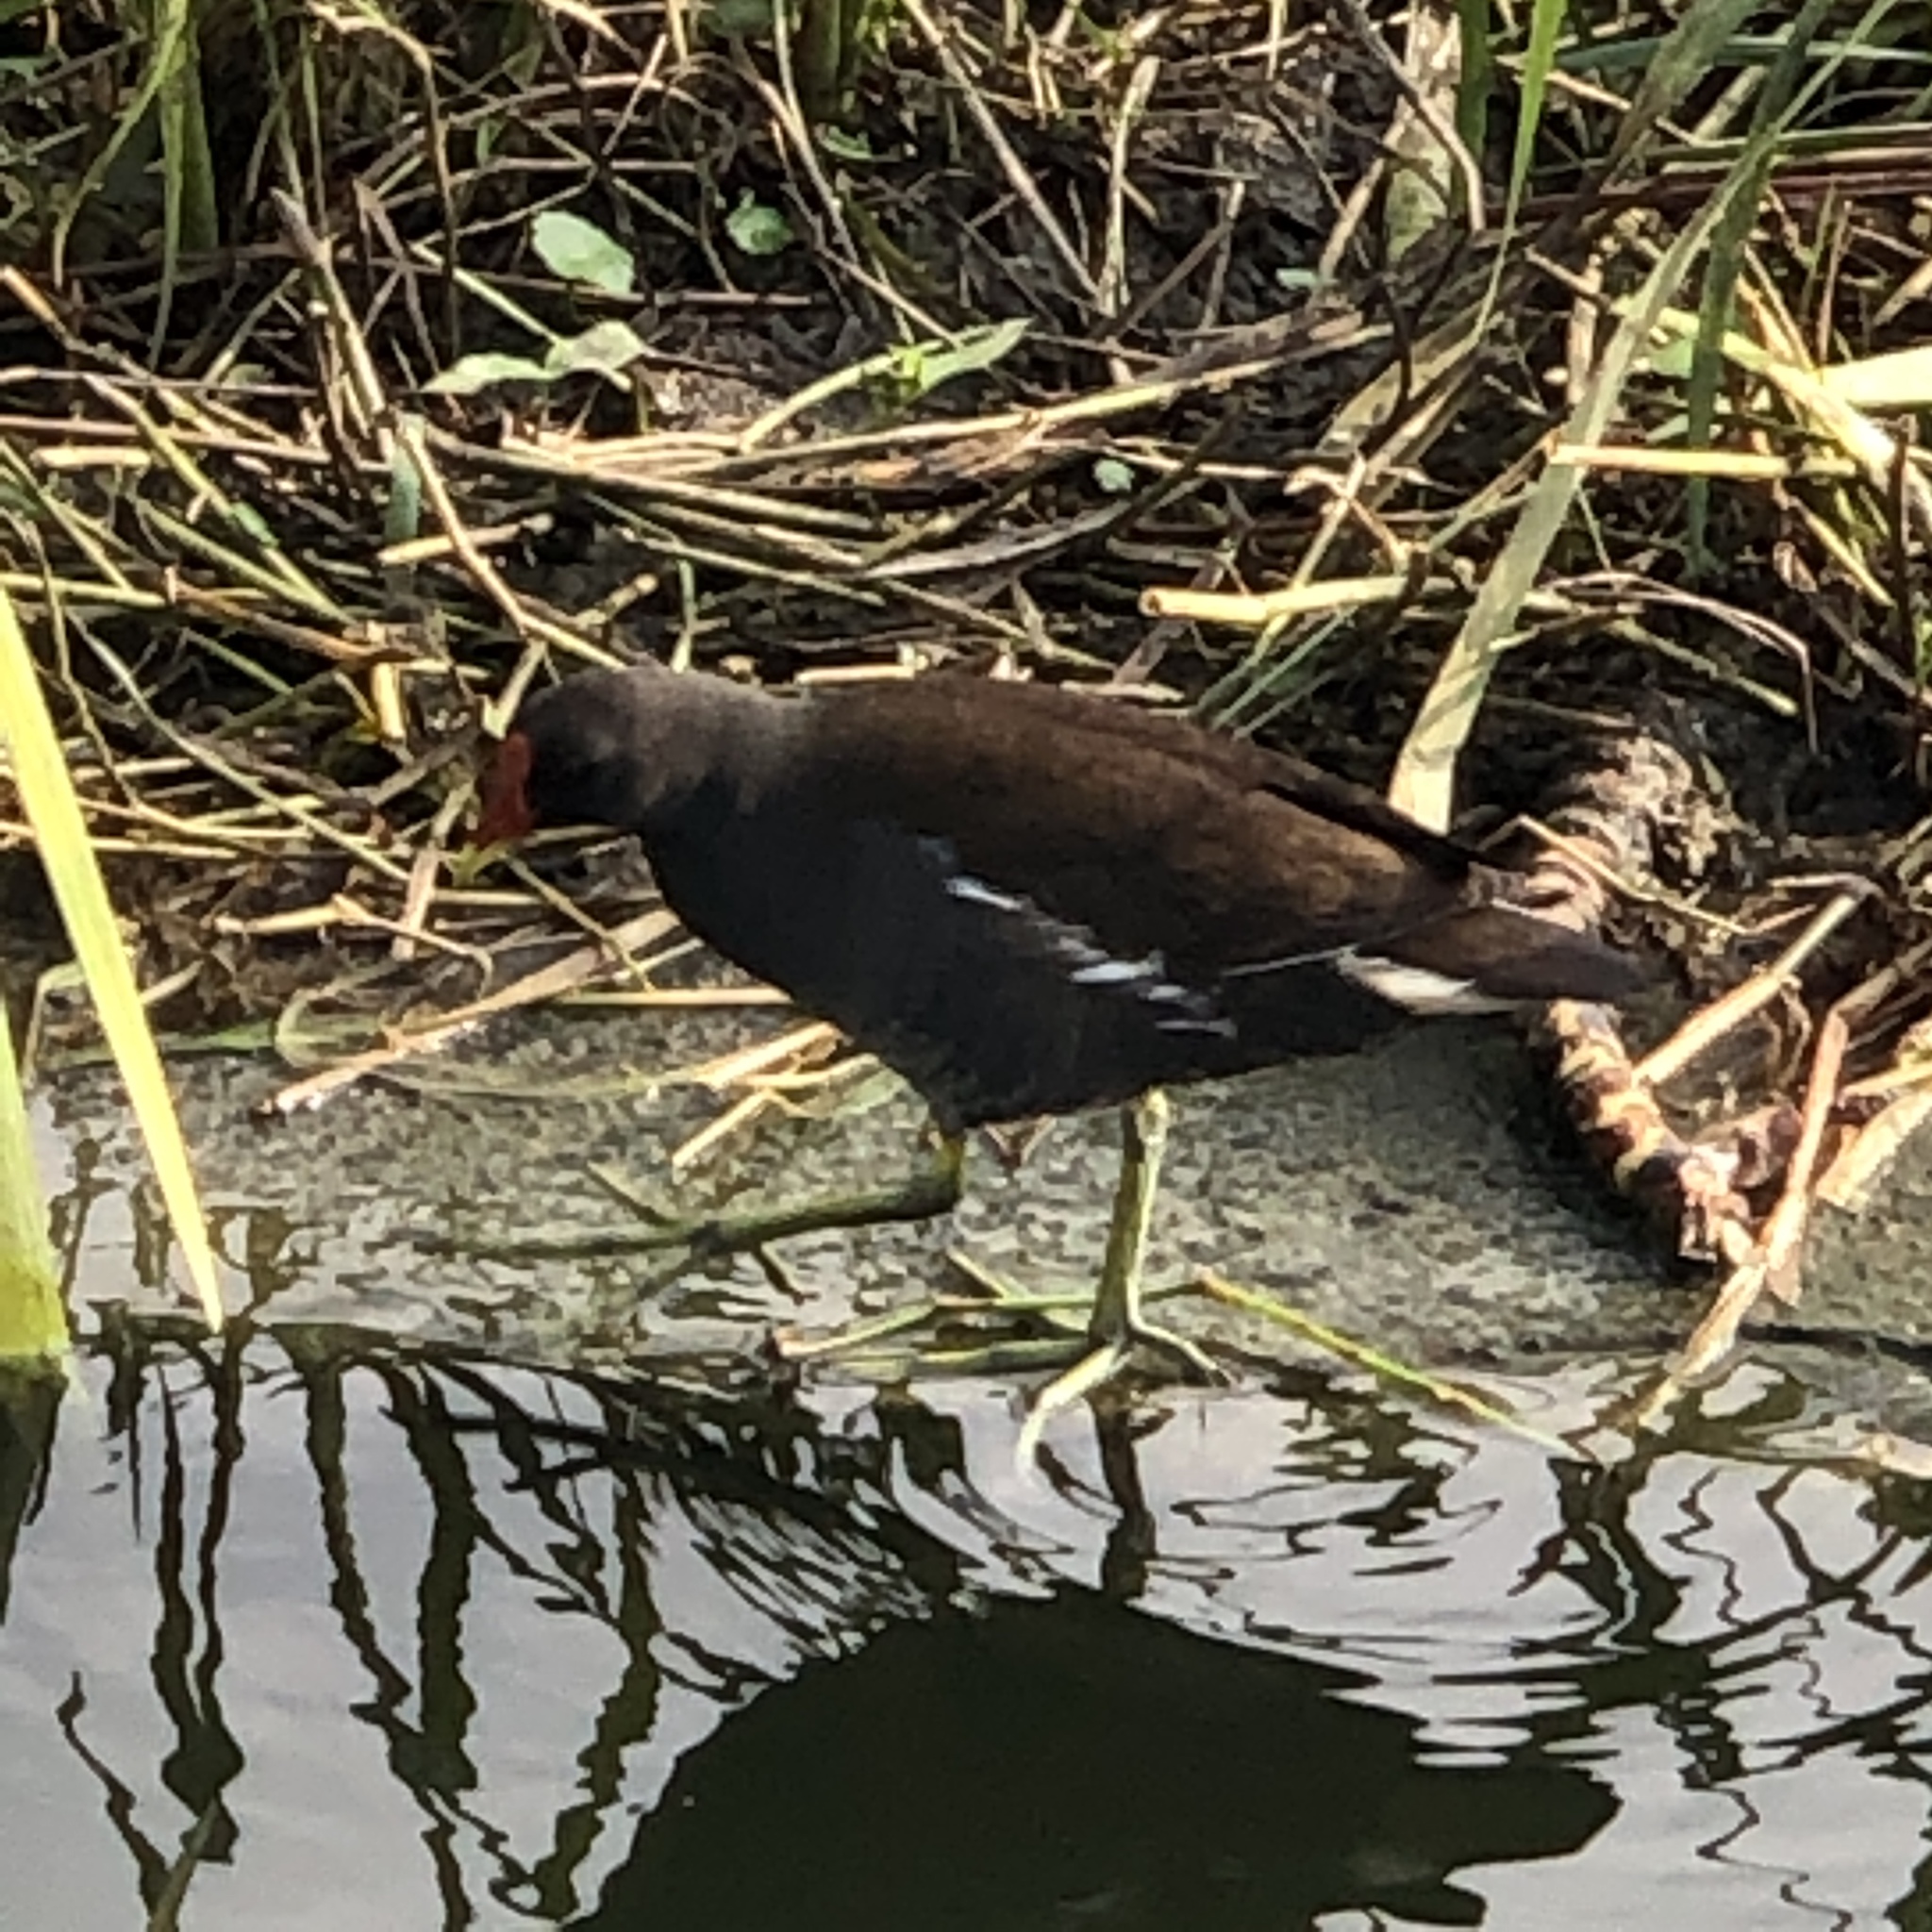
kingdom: Animalia
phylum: Chordata
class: Aves
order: Gruiformes
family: Rallidae
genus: Gallinula
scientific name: Gallinula chloropus
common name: Common moorhen
